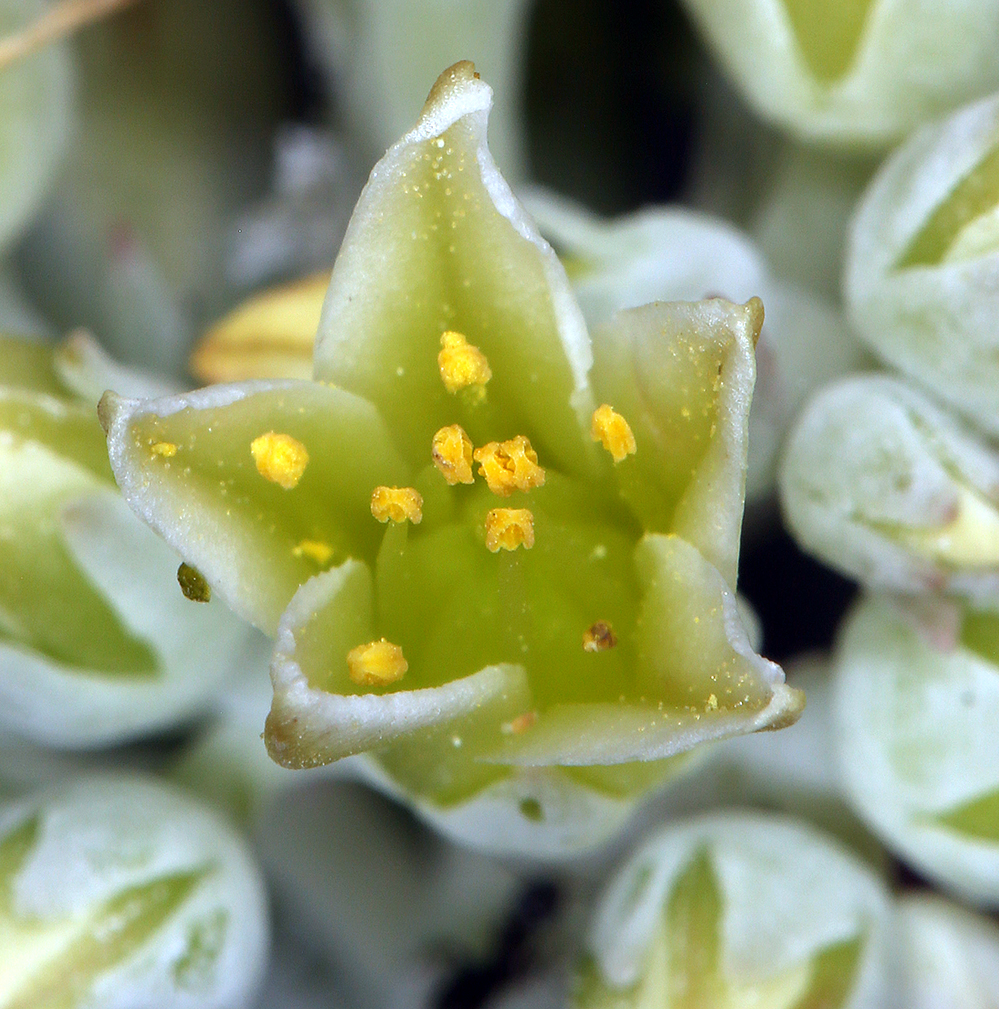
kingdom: Plantae
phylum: Tracheophyta
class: Magnoliopsida
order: Saxifragales
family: Crassulaceae
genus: Sedum
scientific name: Sedum oregonense
